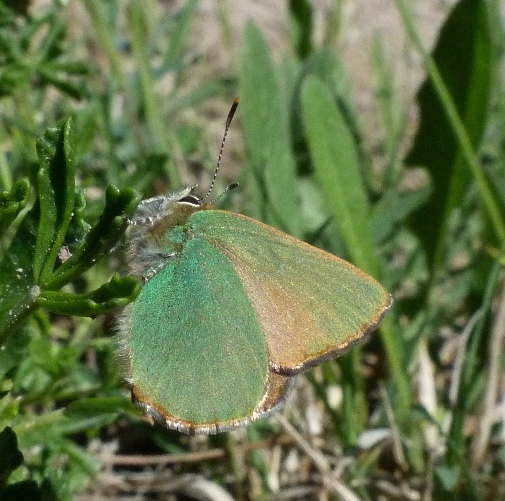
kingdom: Animalia
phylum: Arthropoda
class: Insecta
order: Lepidoptera
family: Lycaenidae
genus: Callophrys
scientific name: Callophrys rubi
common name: Green hairstreak
